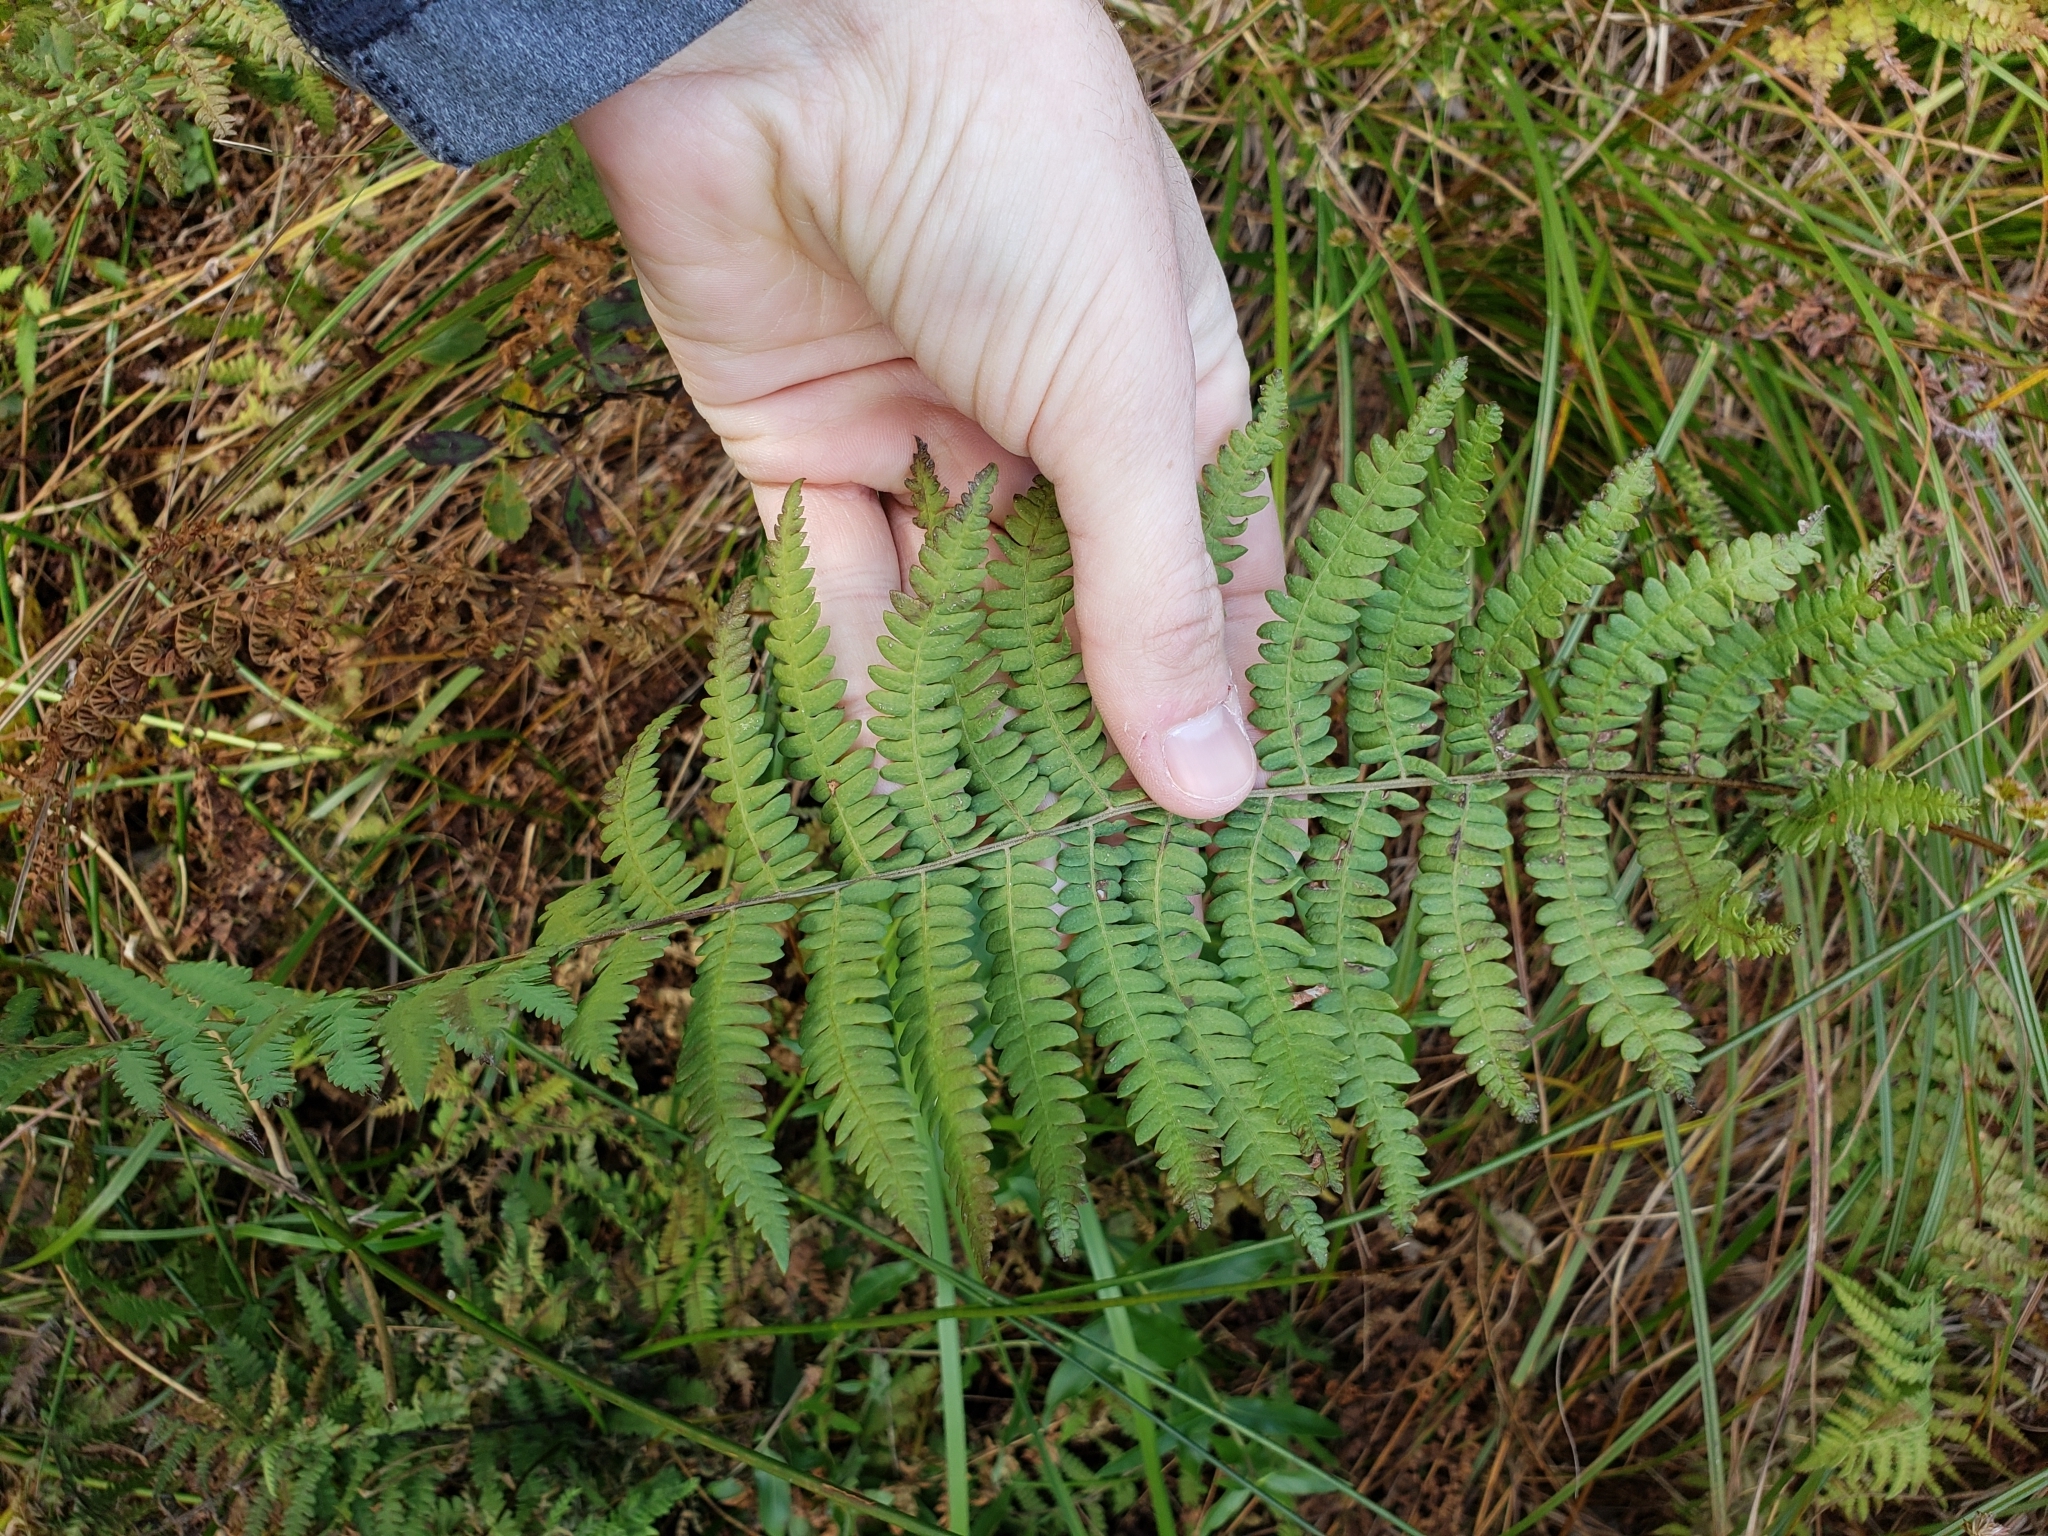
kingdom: Plantae
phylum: Tracheophyta
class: Polypodiopsida
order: Polypodiales
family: Thelypteridaceae
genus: Thelypteris
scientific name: Thelypteris palustris
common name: Marsh fern
